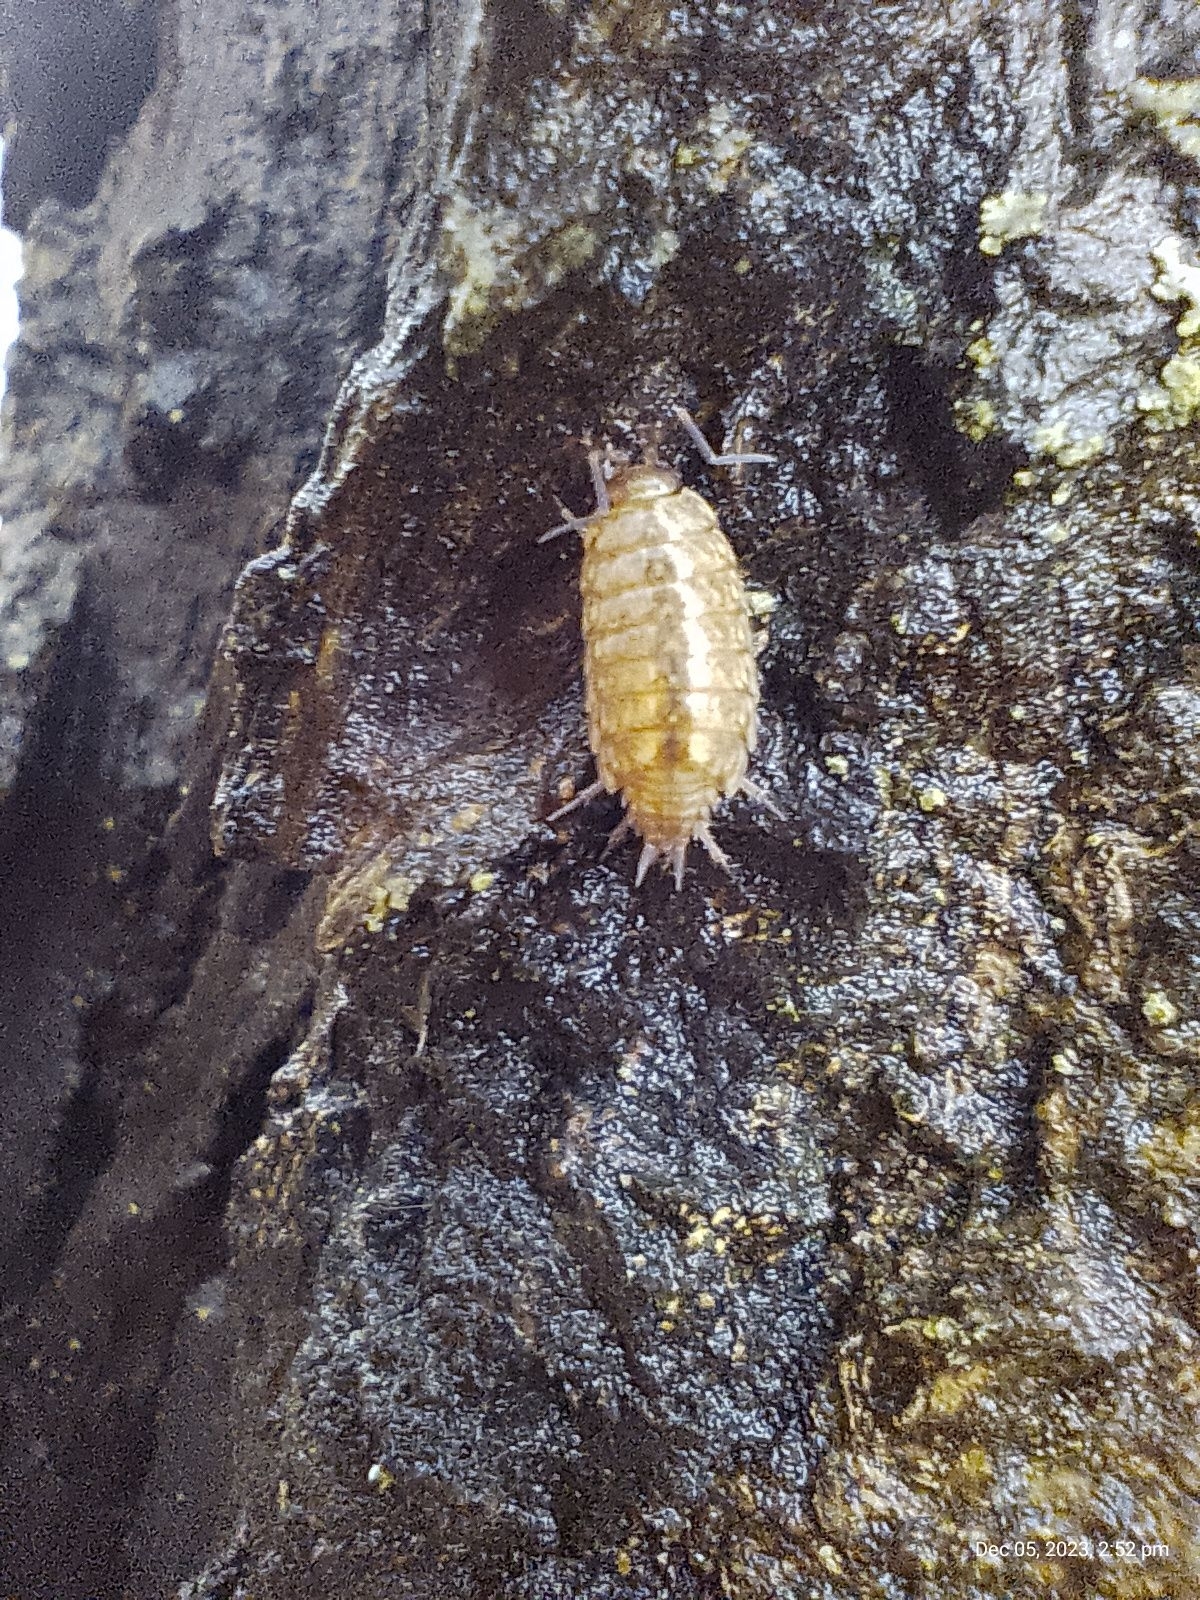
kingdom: Animalia
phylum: Arthropoda
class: Malacostraca
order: Isopoda
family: Philosciidae
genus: Philoscia
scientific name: Philoscia muscorum
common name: Common striped woodlouse
